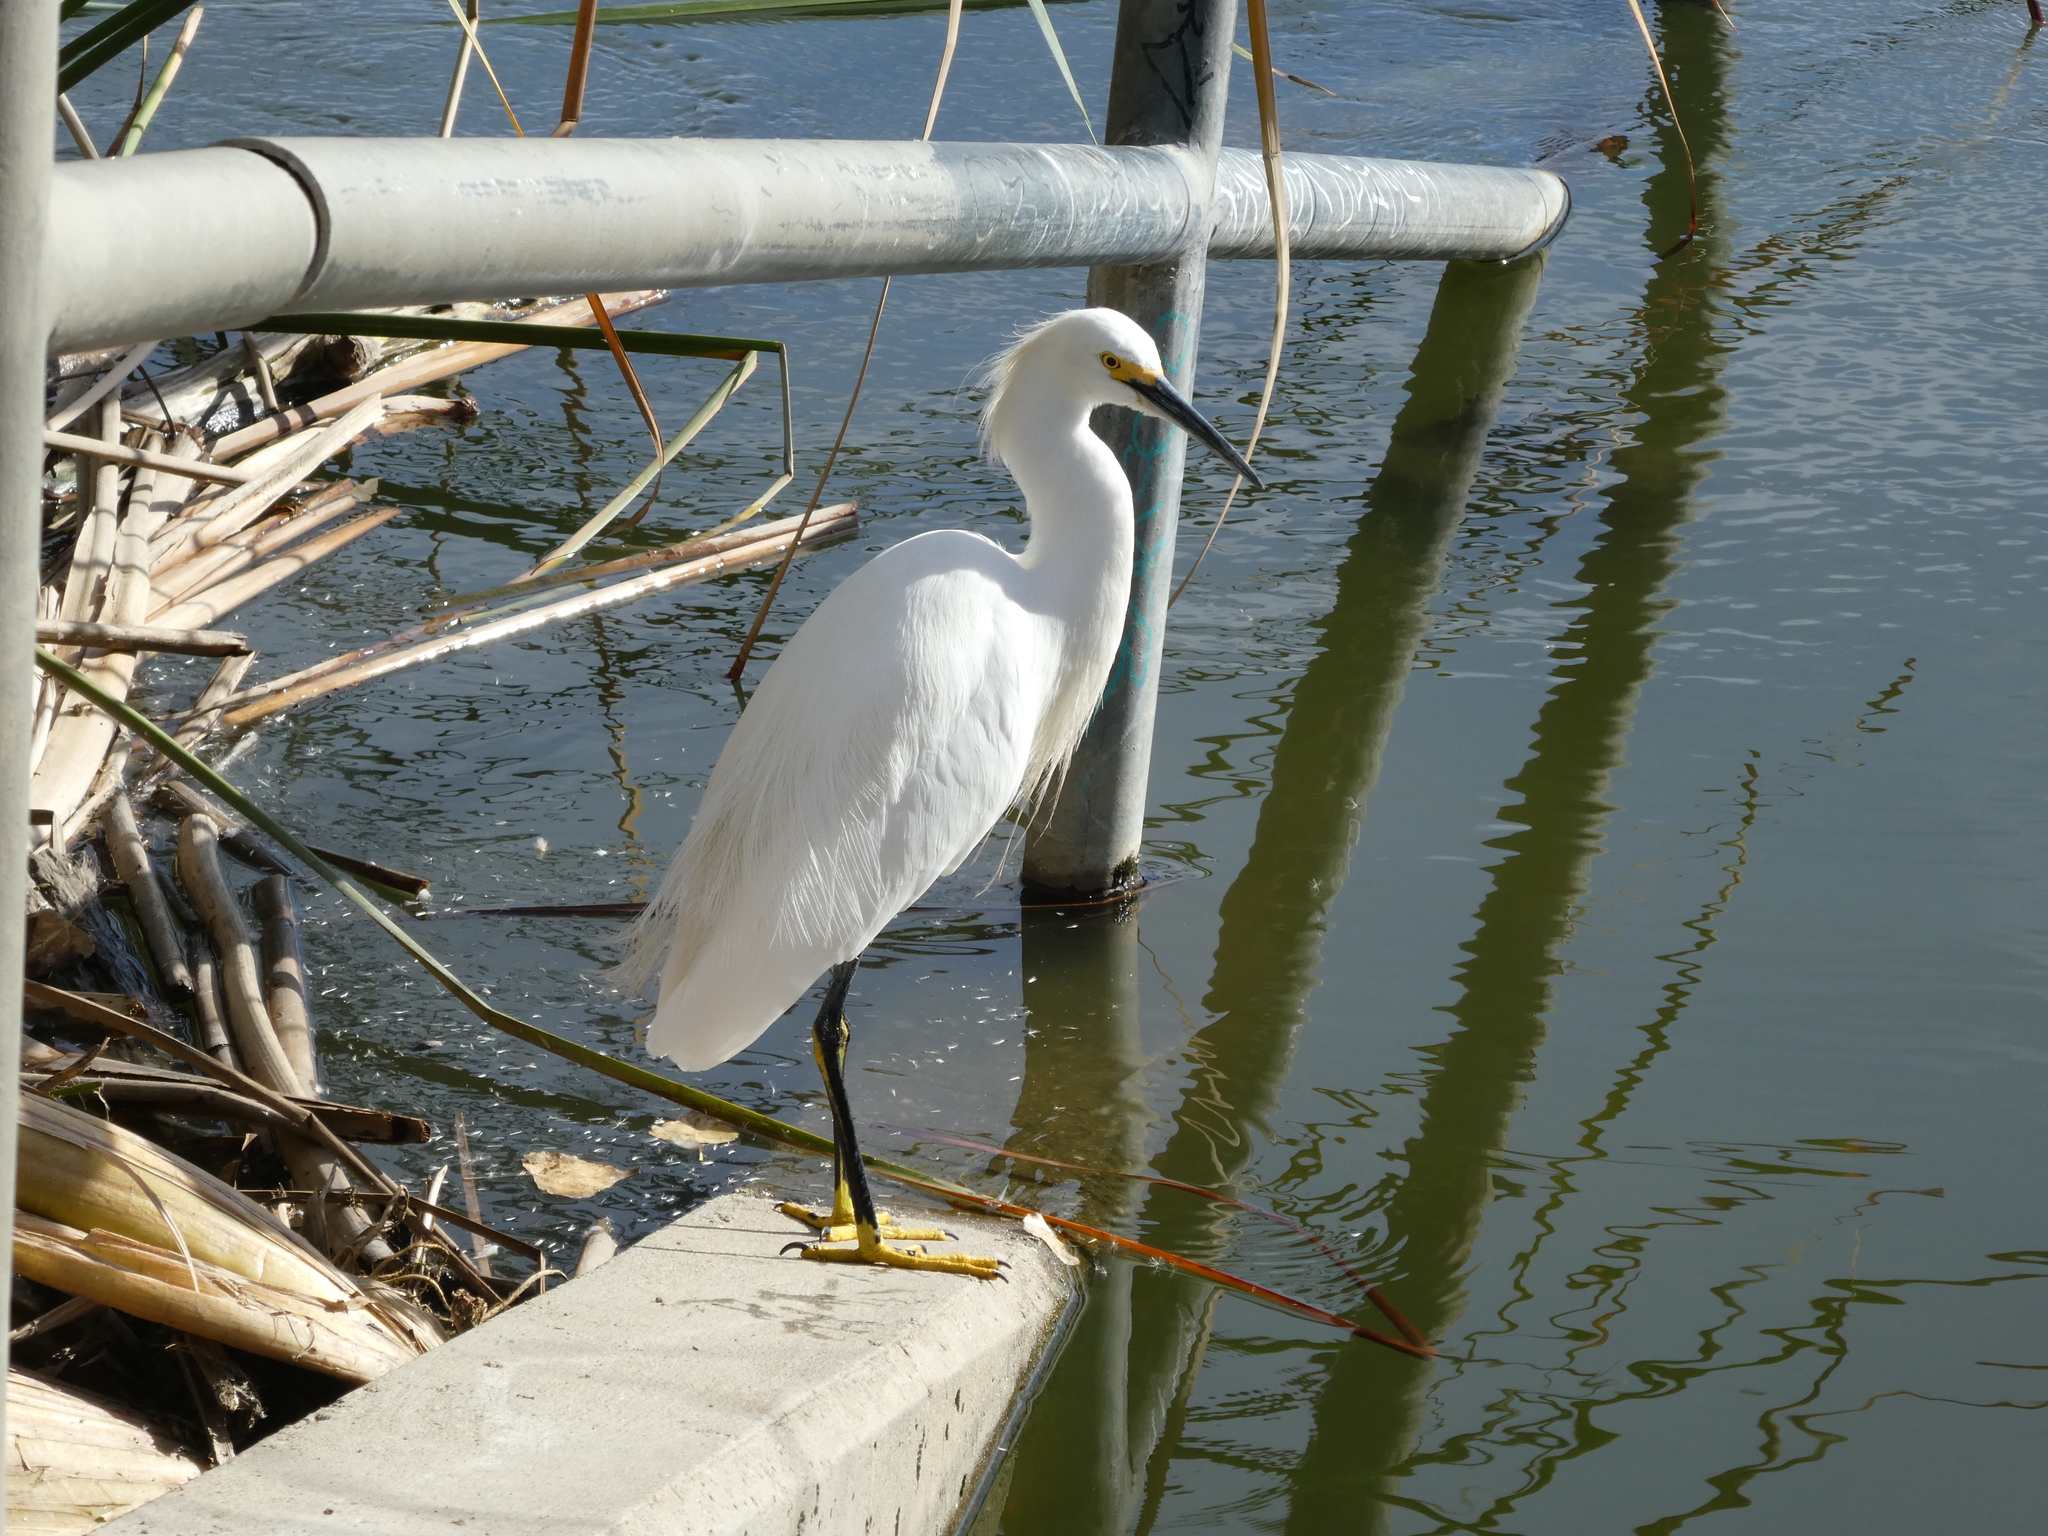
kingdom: Animalia
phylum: Chordata
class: Aves
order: Pelecaniformes
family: Ardeidae
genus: Egretta
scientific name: Egretta thula
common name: Snowy egret
